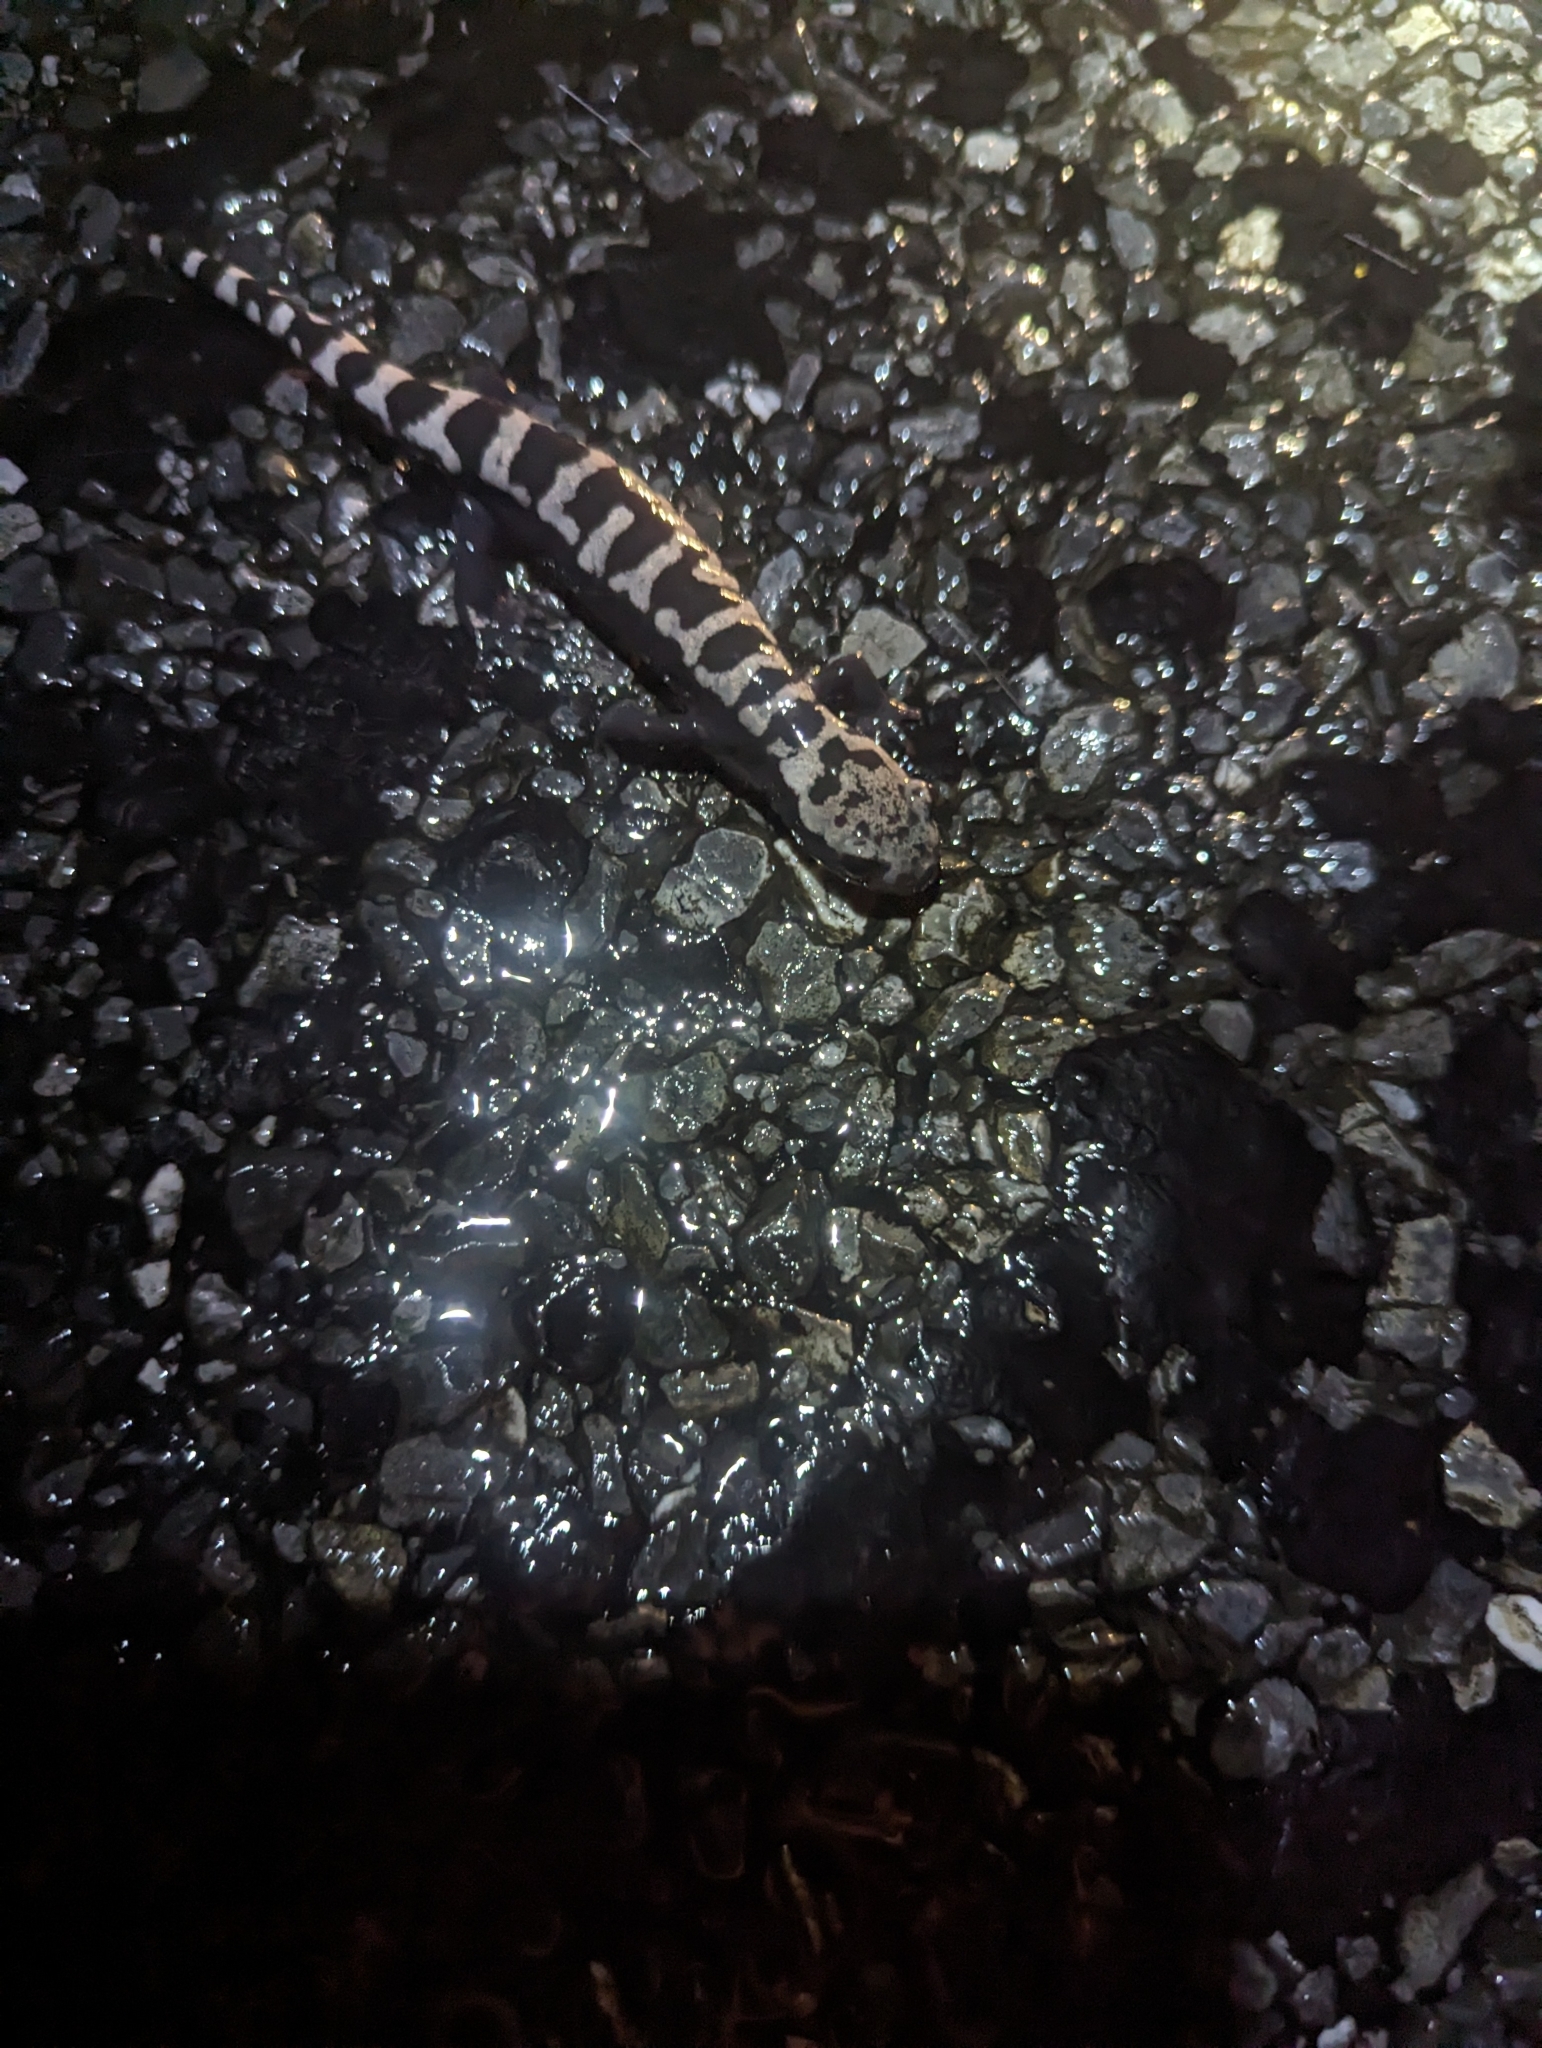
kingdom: Animalia
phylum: Chordata
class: Amphibia
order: Caudata
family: Ambystomatidae
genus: Ambystoma
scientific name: Ambystoma opacum
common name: Marbled salamander
